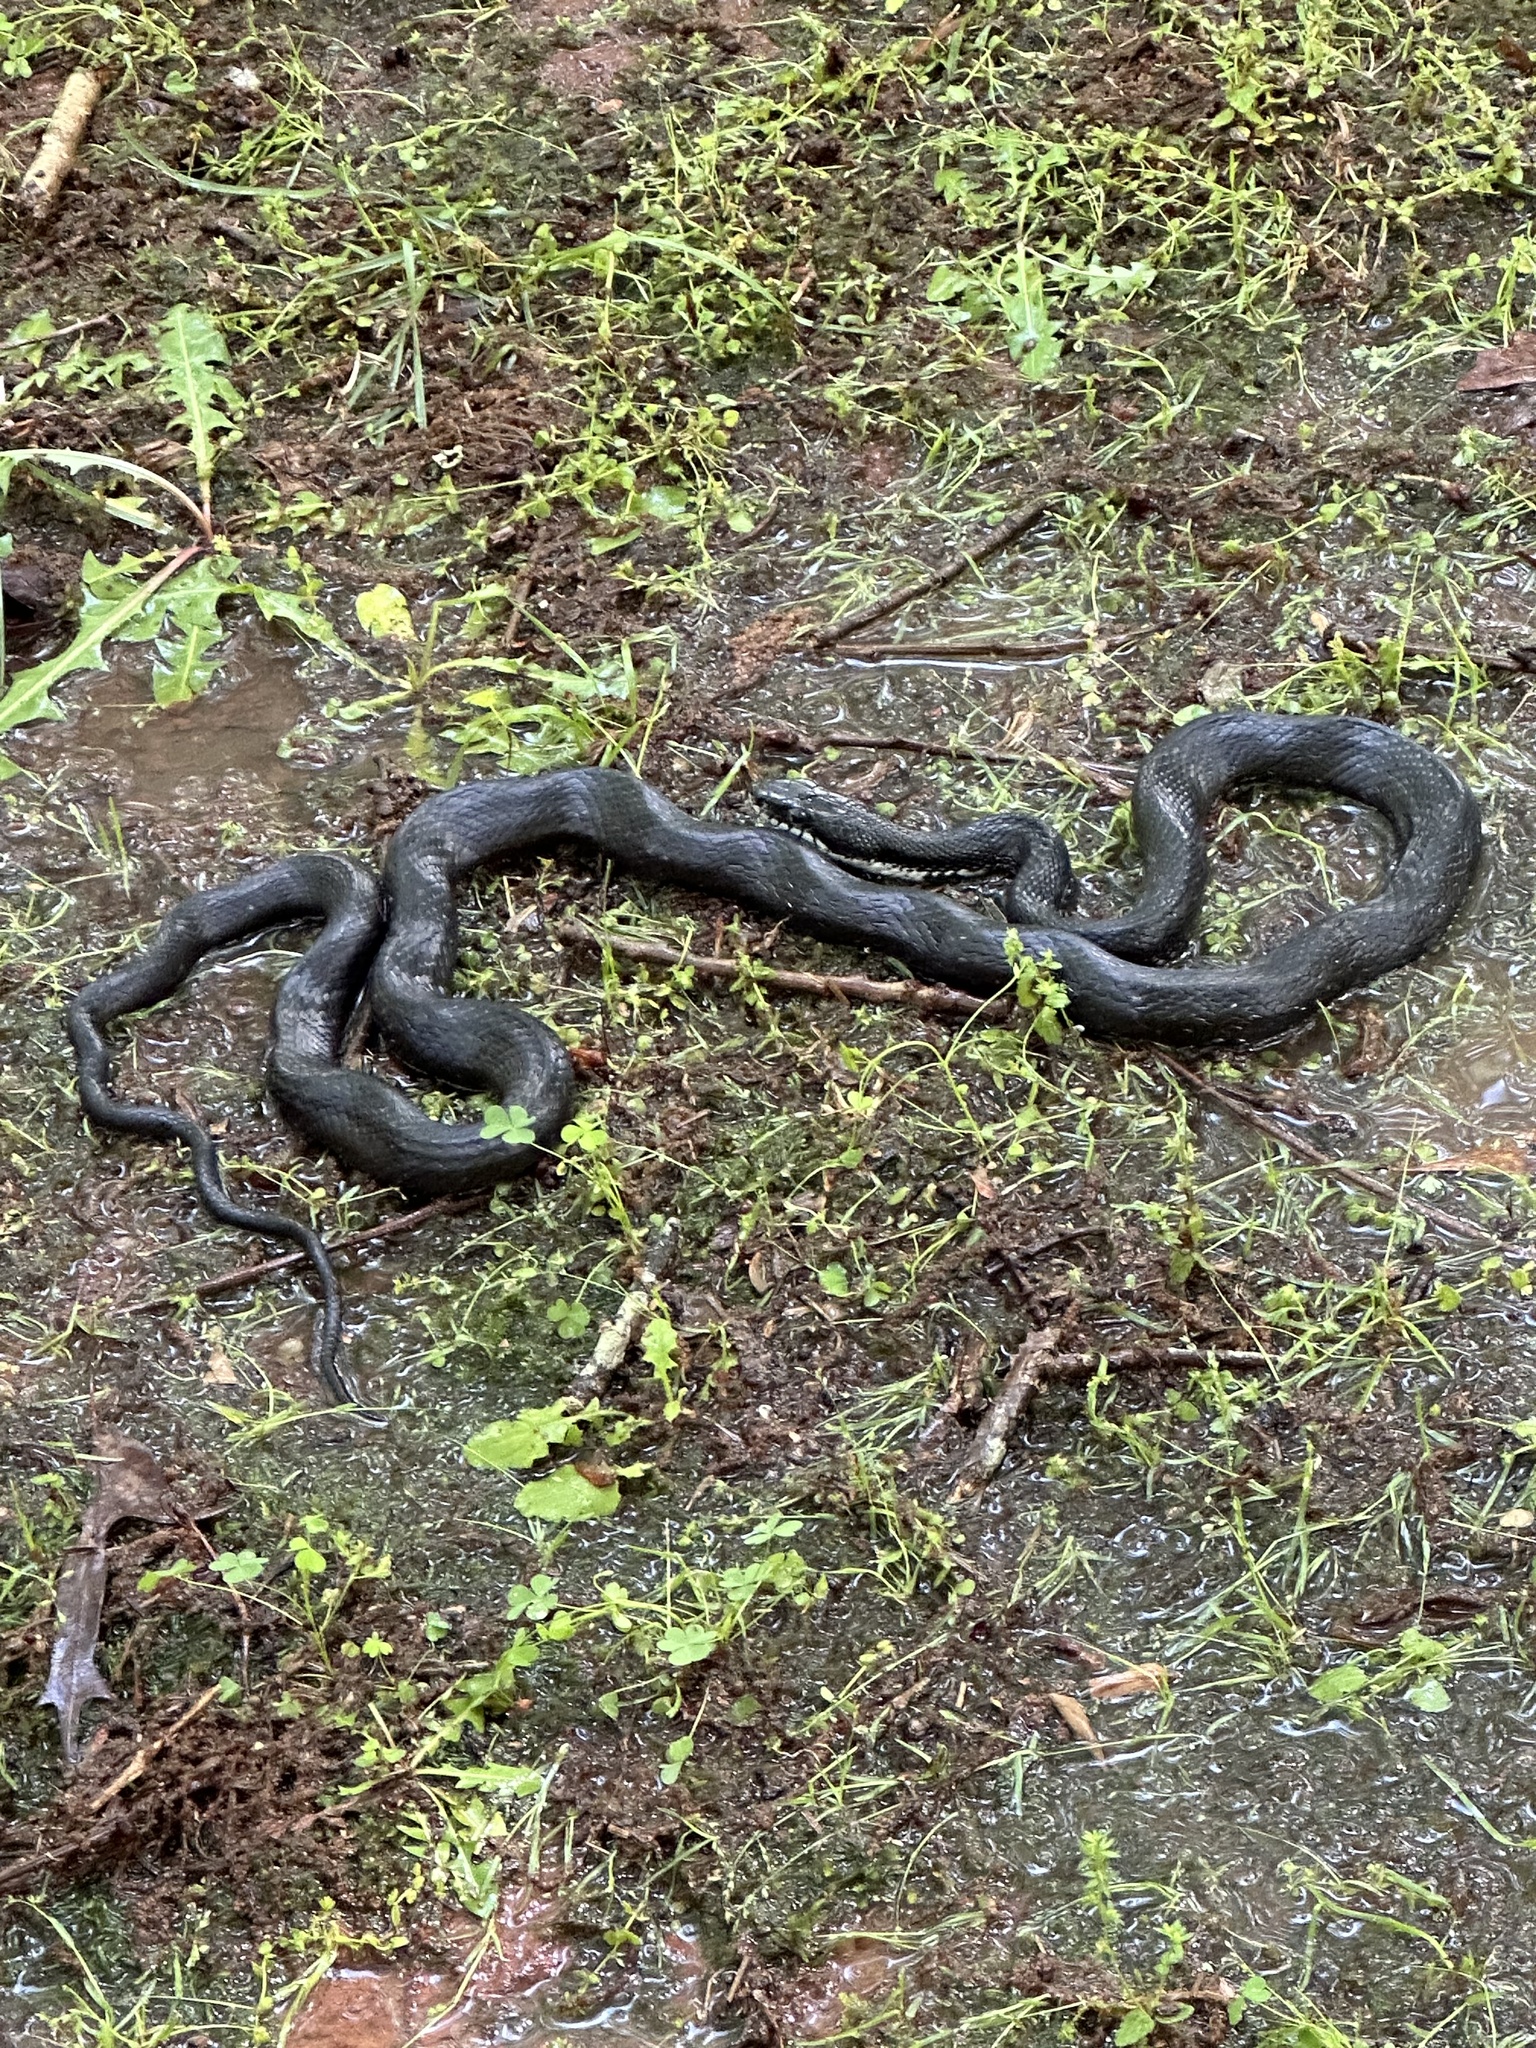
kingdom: Animalia
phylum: Chordata
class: Squamata
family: Colubridae
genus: Pantherophis
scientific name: Pantherophis
